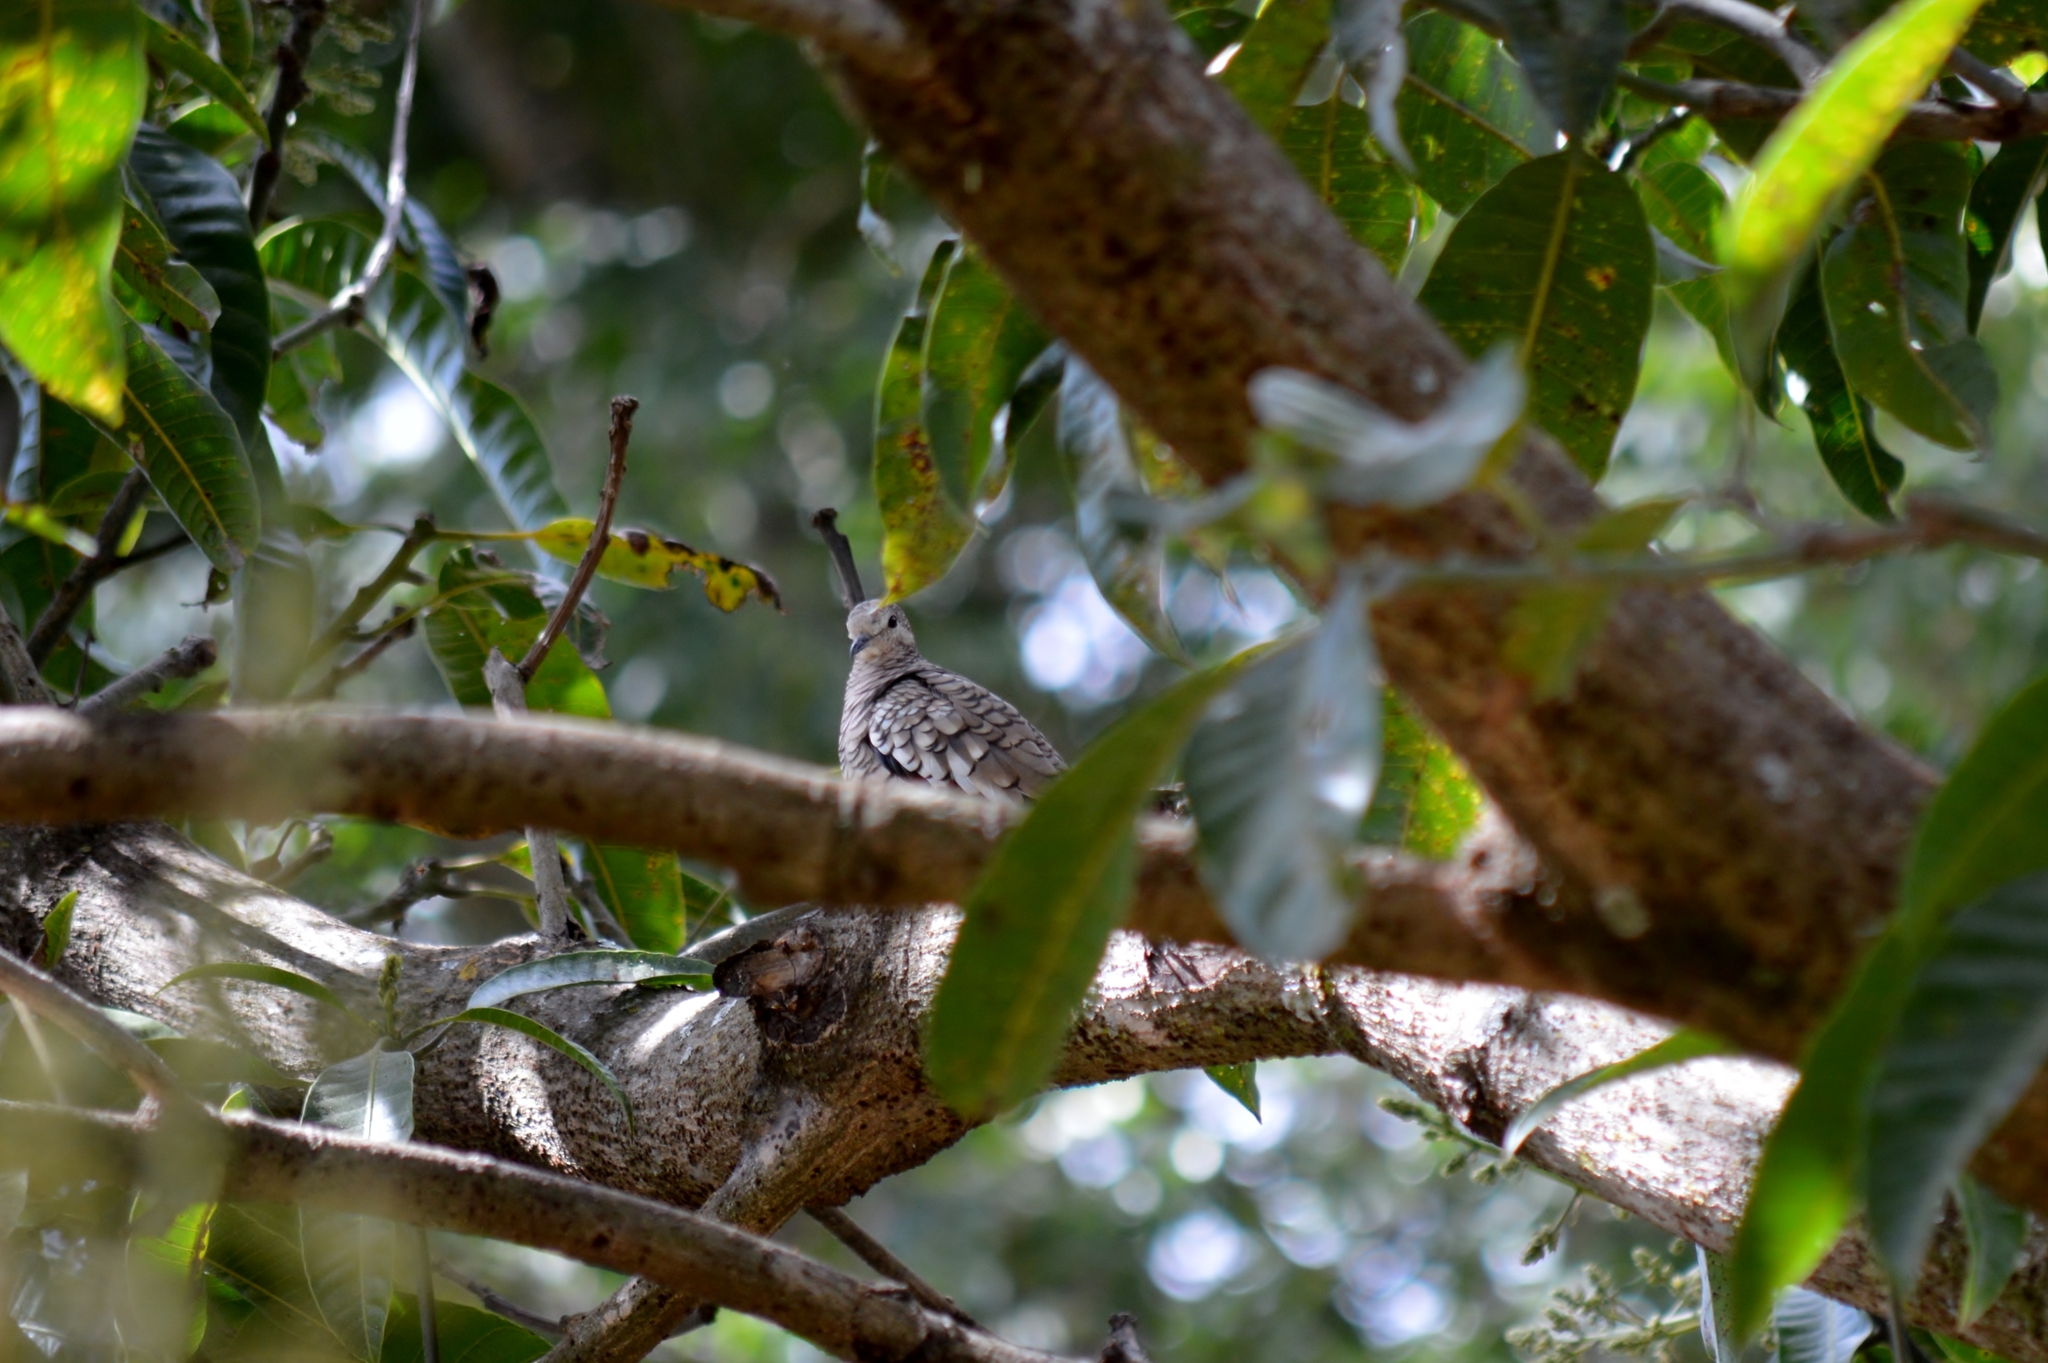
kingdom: Animalia
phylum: Chordata
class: Aves
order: Columbiformes
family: Columbidae
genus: Columbina
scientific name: Columbina squammata
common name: Scaled dove
